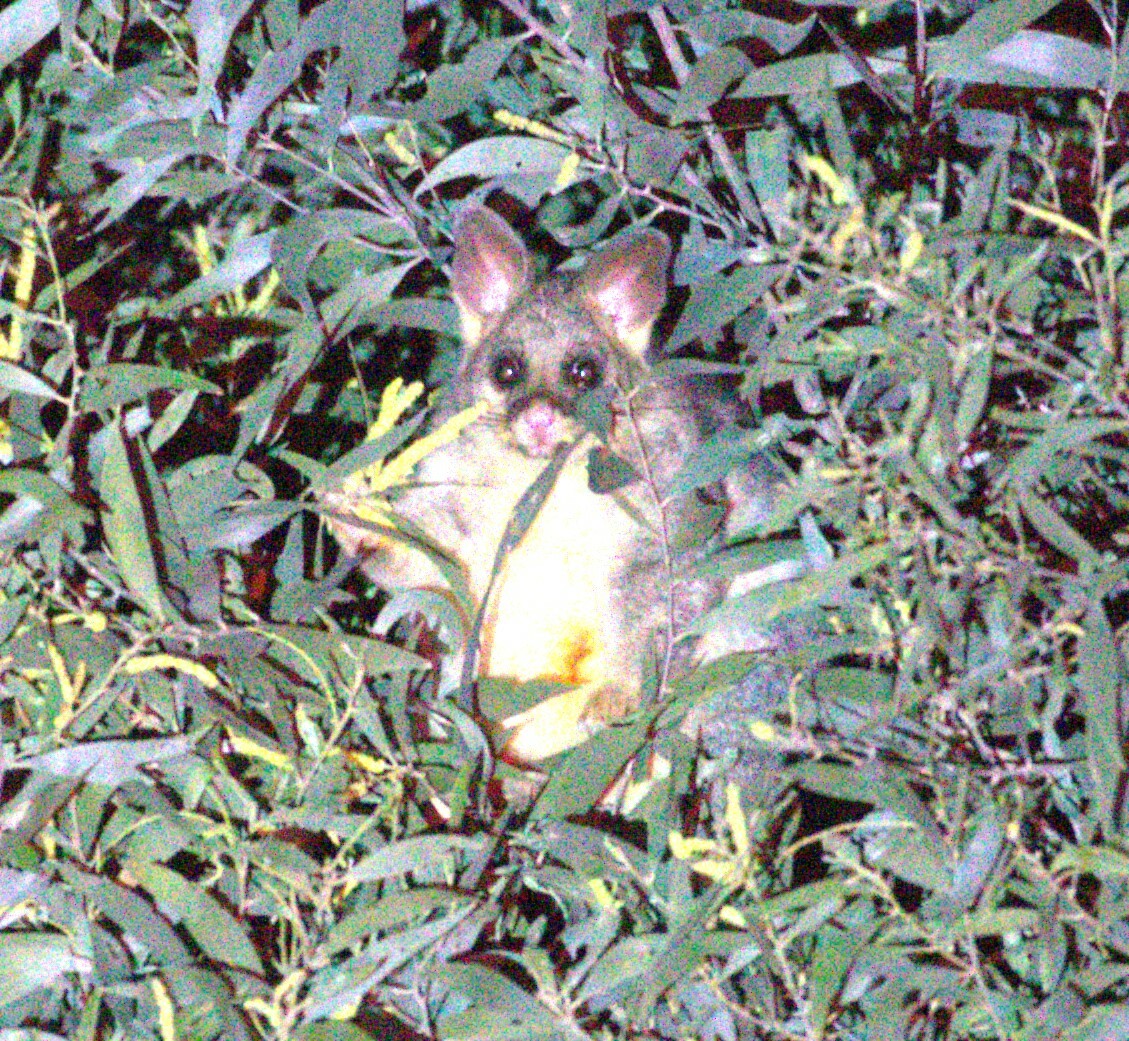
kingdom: Animalia
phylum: Chordata
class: Mammalia
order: Diprotodontia
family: Phalangeridae
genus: Trichosurus
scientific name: Trichosurus vulpecula
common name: Common brushtail
